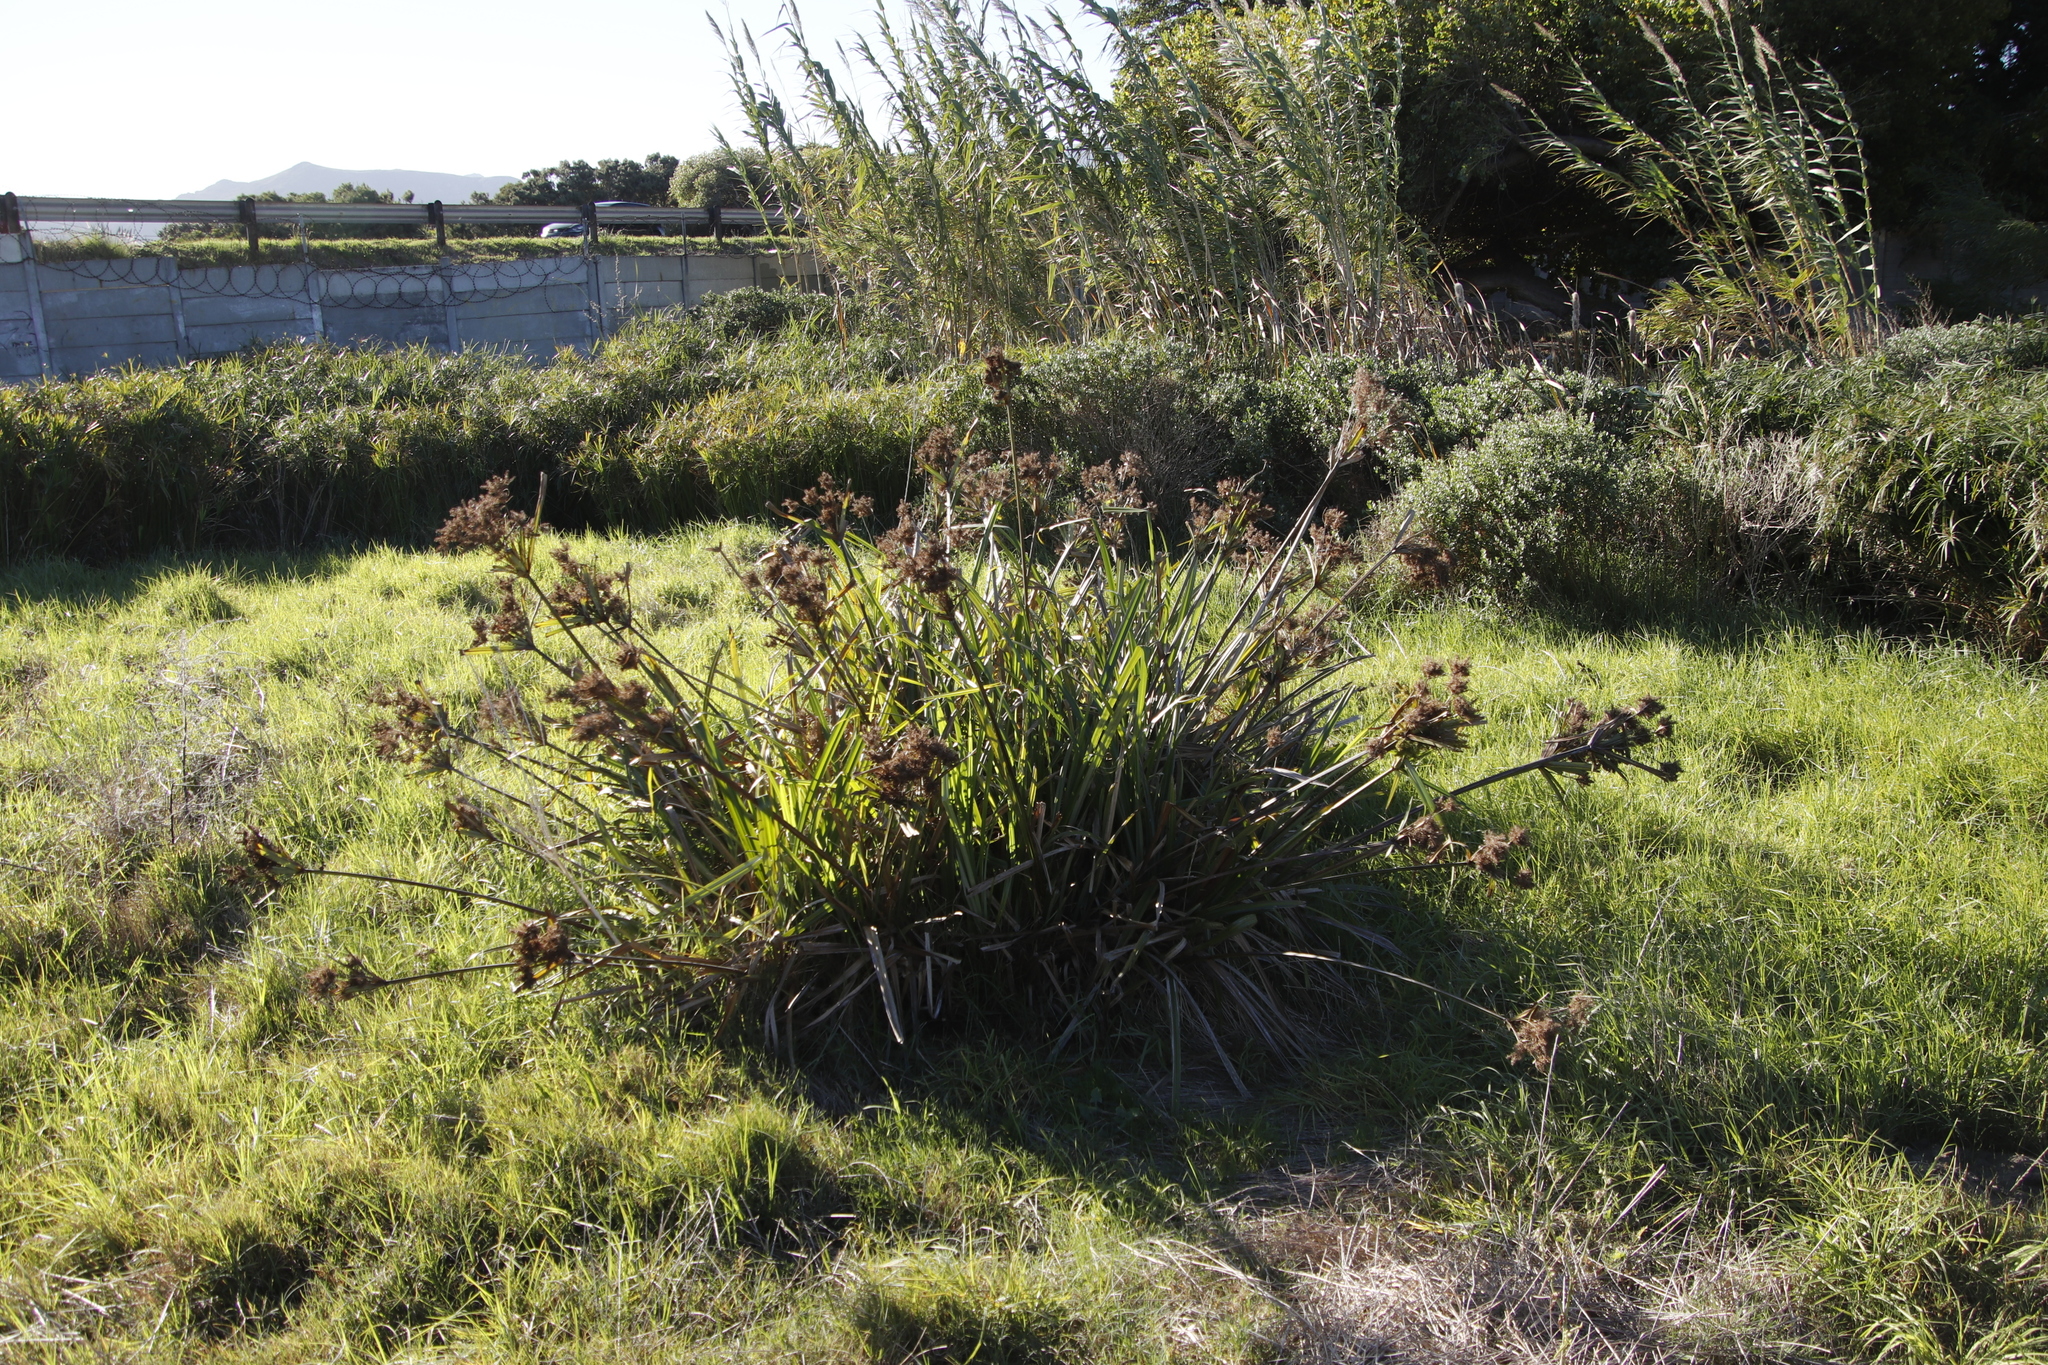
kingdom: Plantae
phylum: Tracheophyta
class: Liliopsida
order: Poales
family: Cyperaceae
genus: Cyperus
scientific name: Cyperus dives
